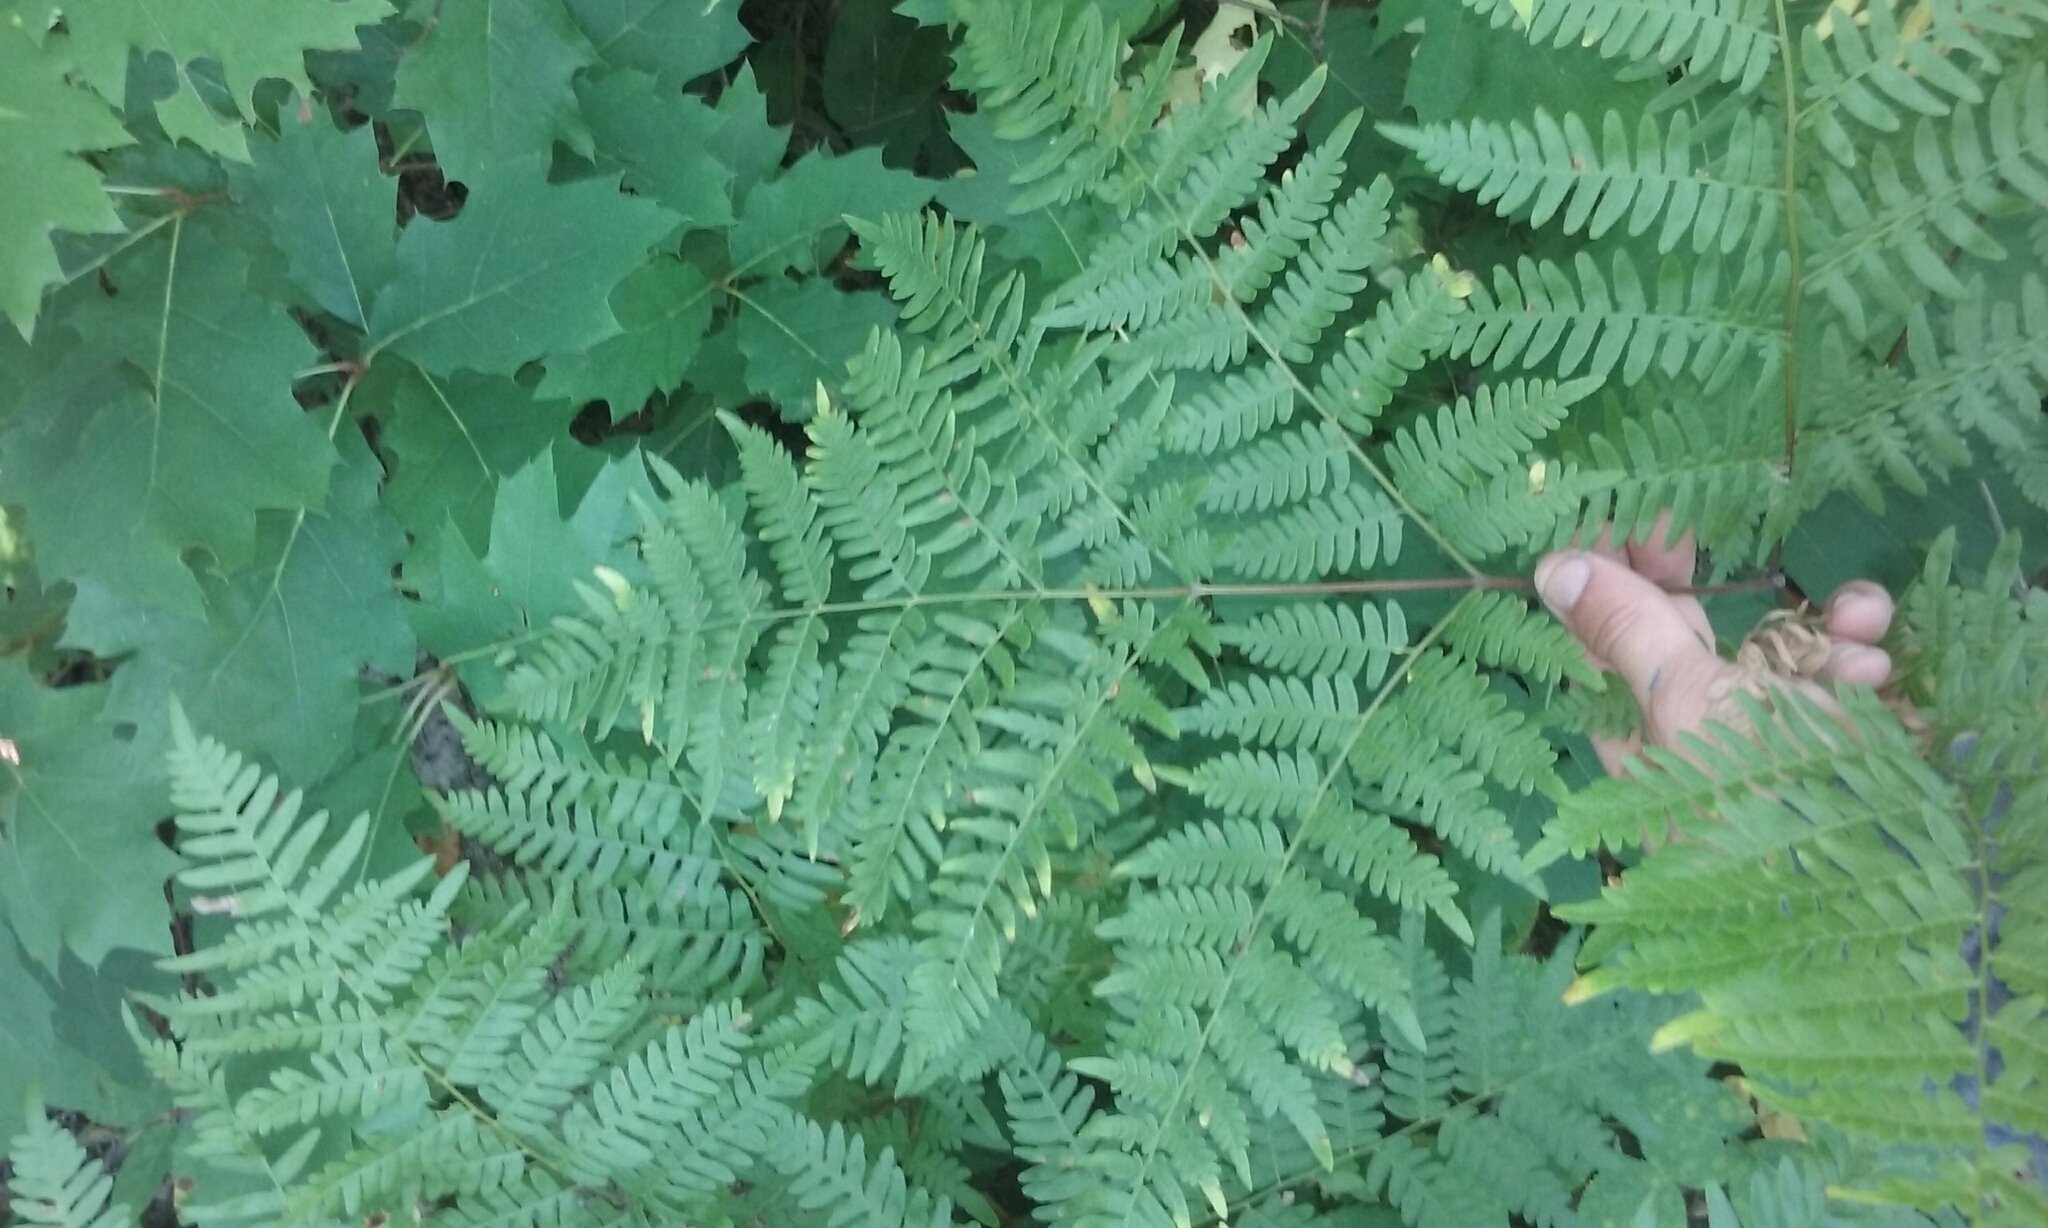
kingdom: Plantae
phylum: Tracheophyta
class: Polypodiopsida
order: Polypodiales
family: Dennstaedtiaceae
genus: Pteridium
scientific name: Pteridium aquilinum
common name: Bracken
